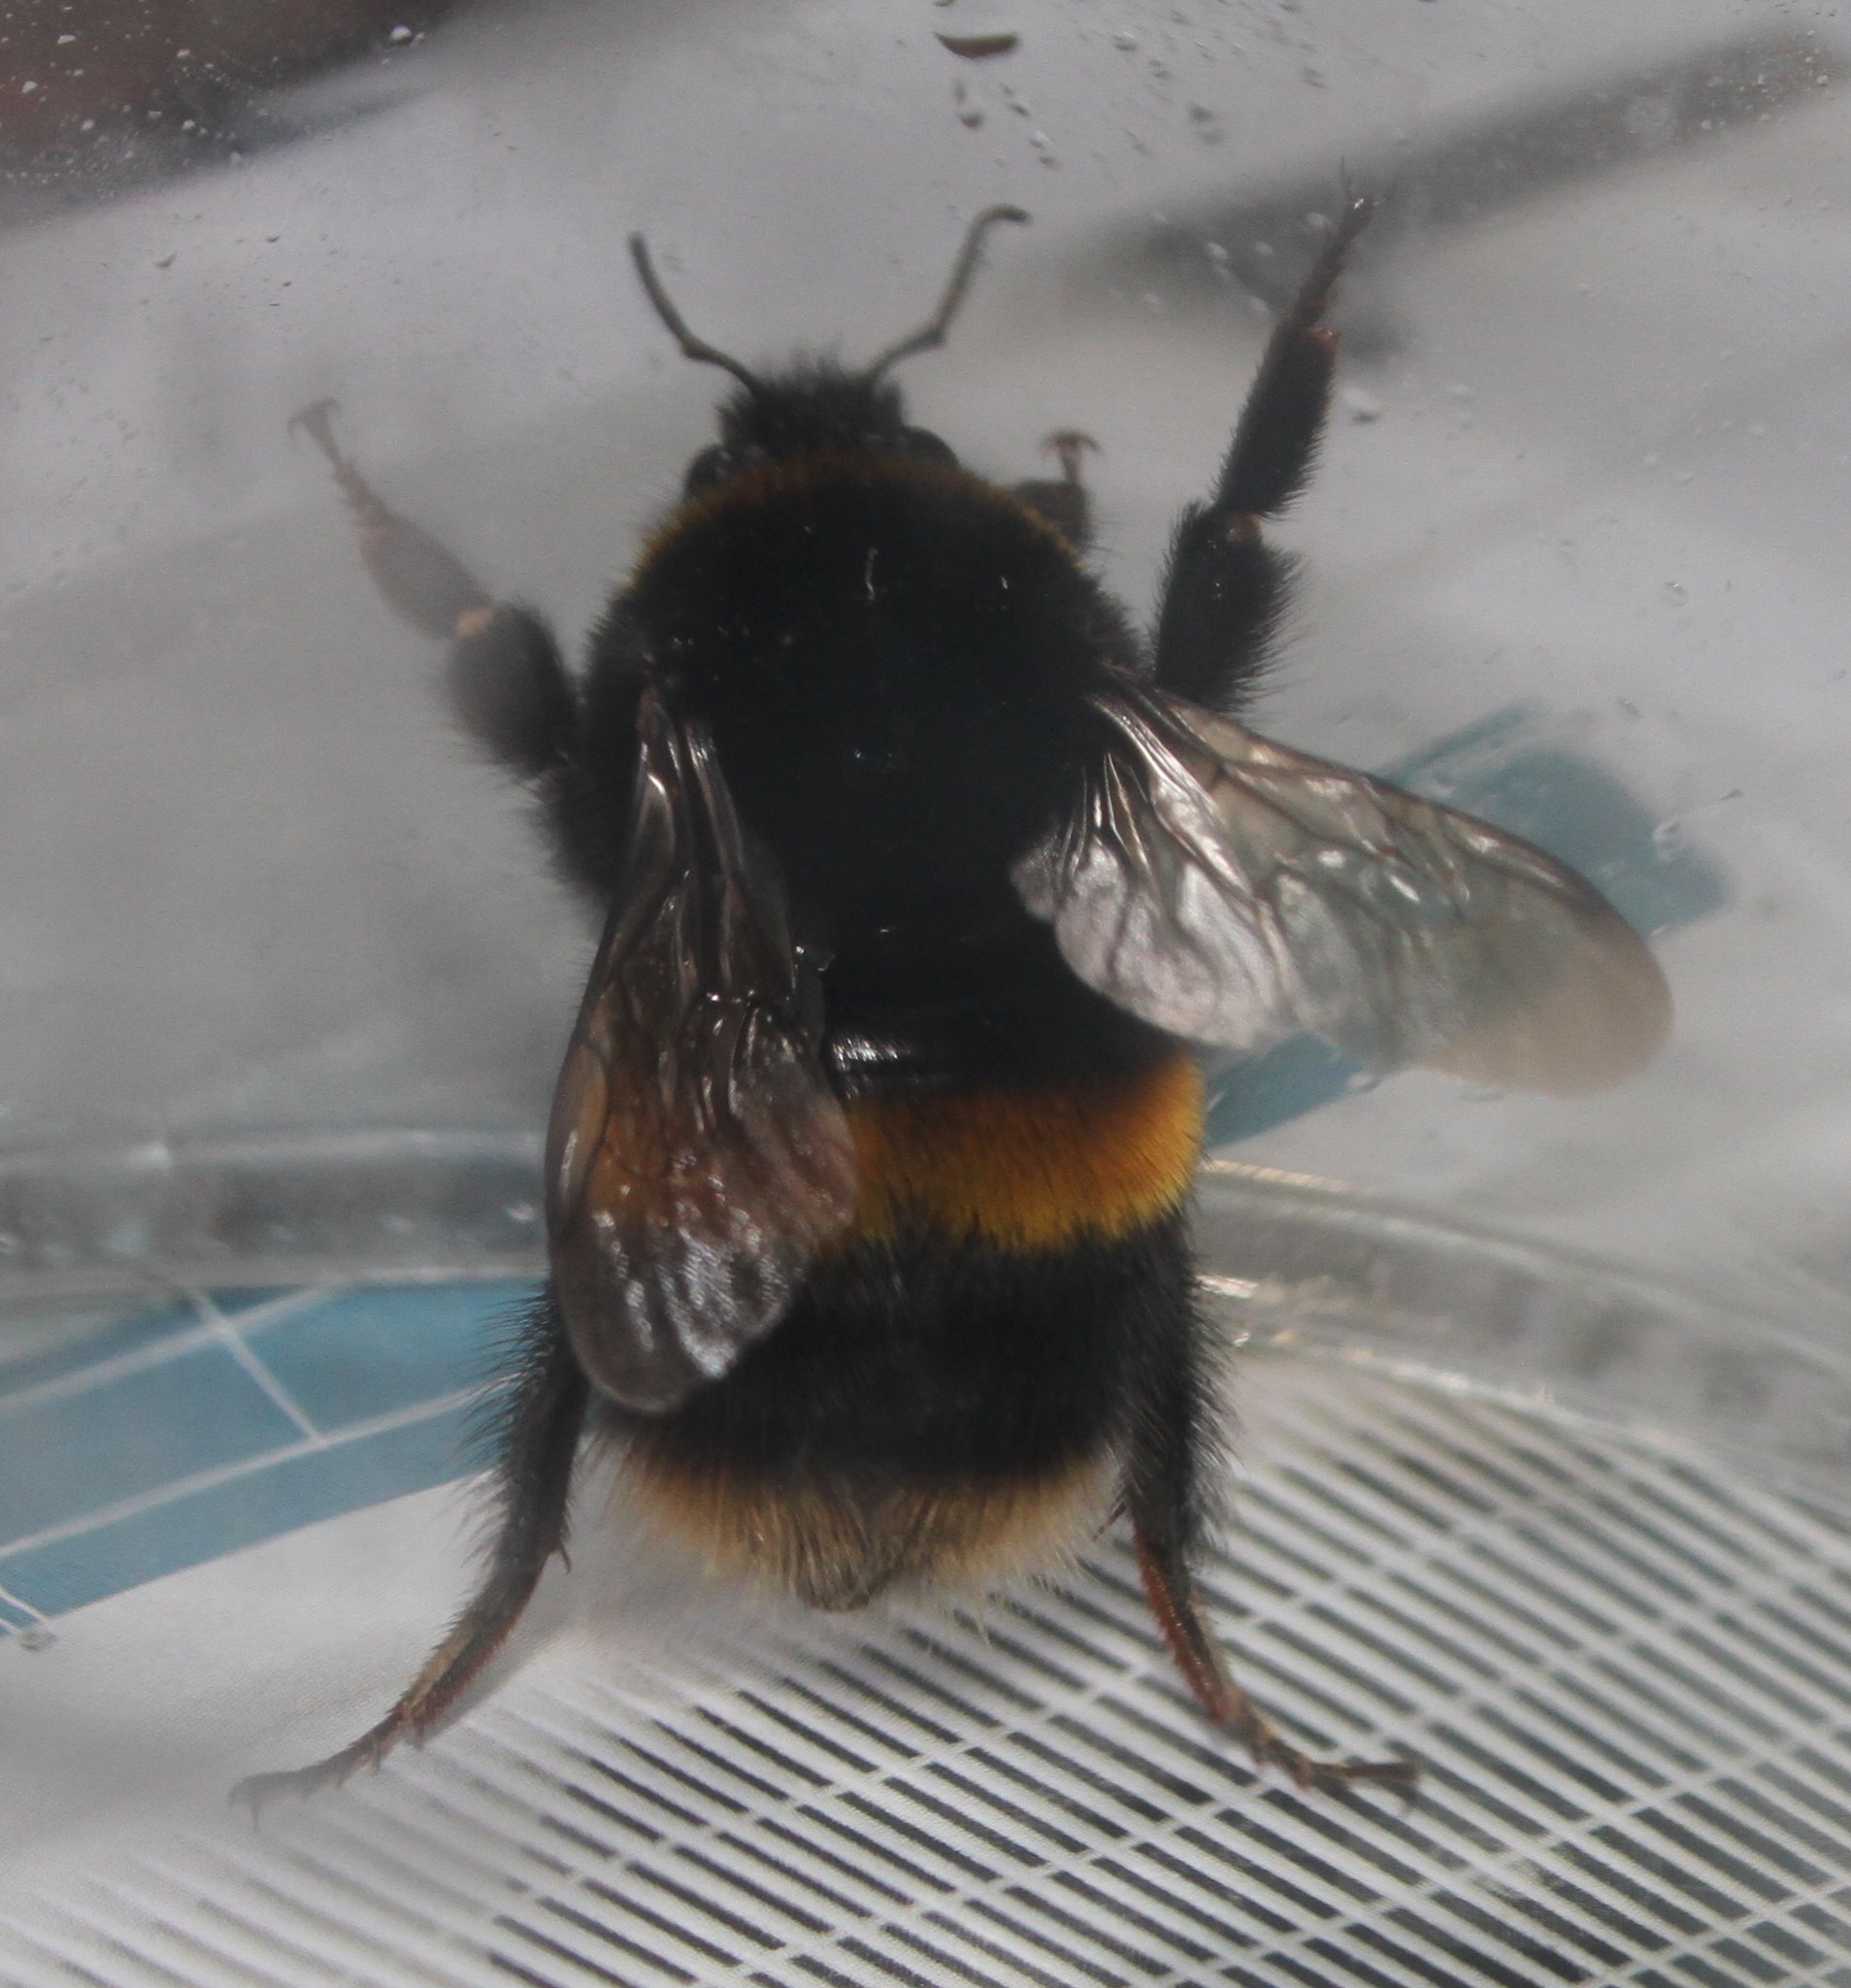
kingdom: Animalia
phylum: Arthropoda
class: Insecta
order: Hymenoptera
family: Apidae
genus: Bombus
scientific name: Bombus terrestris
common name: Buff-tailed bumblebee
